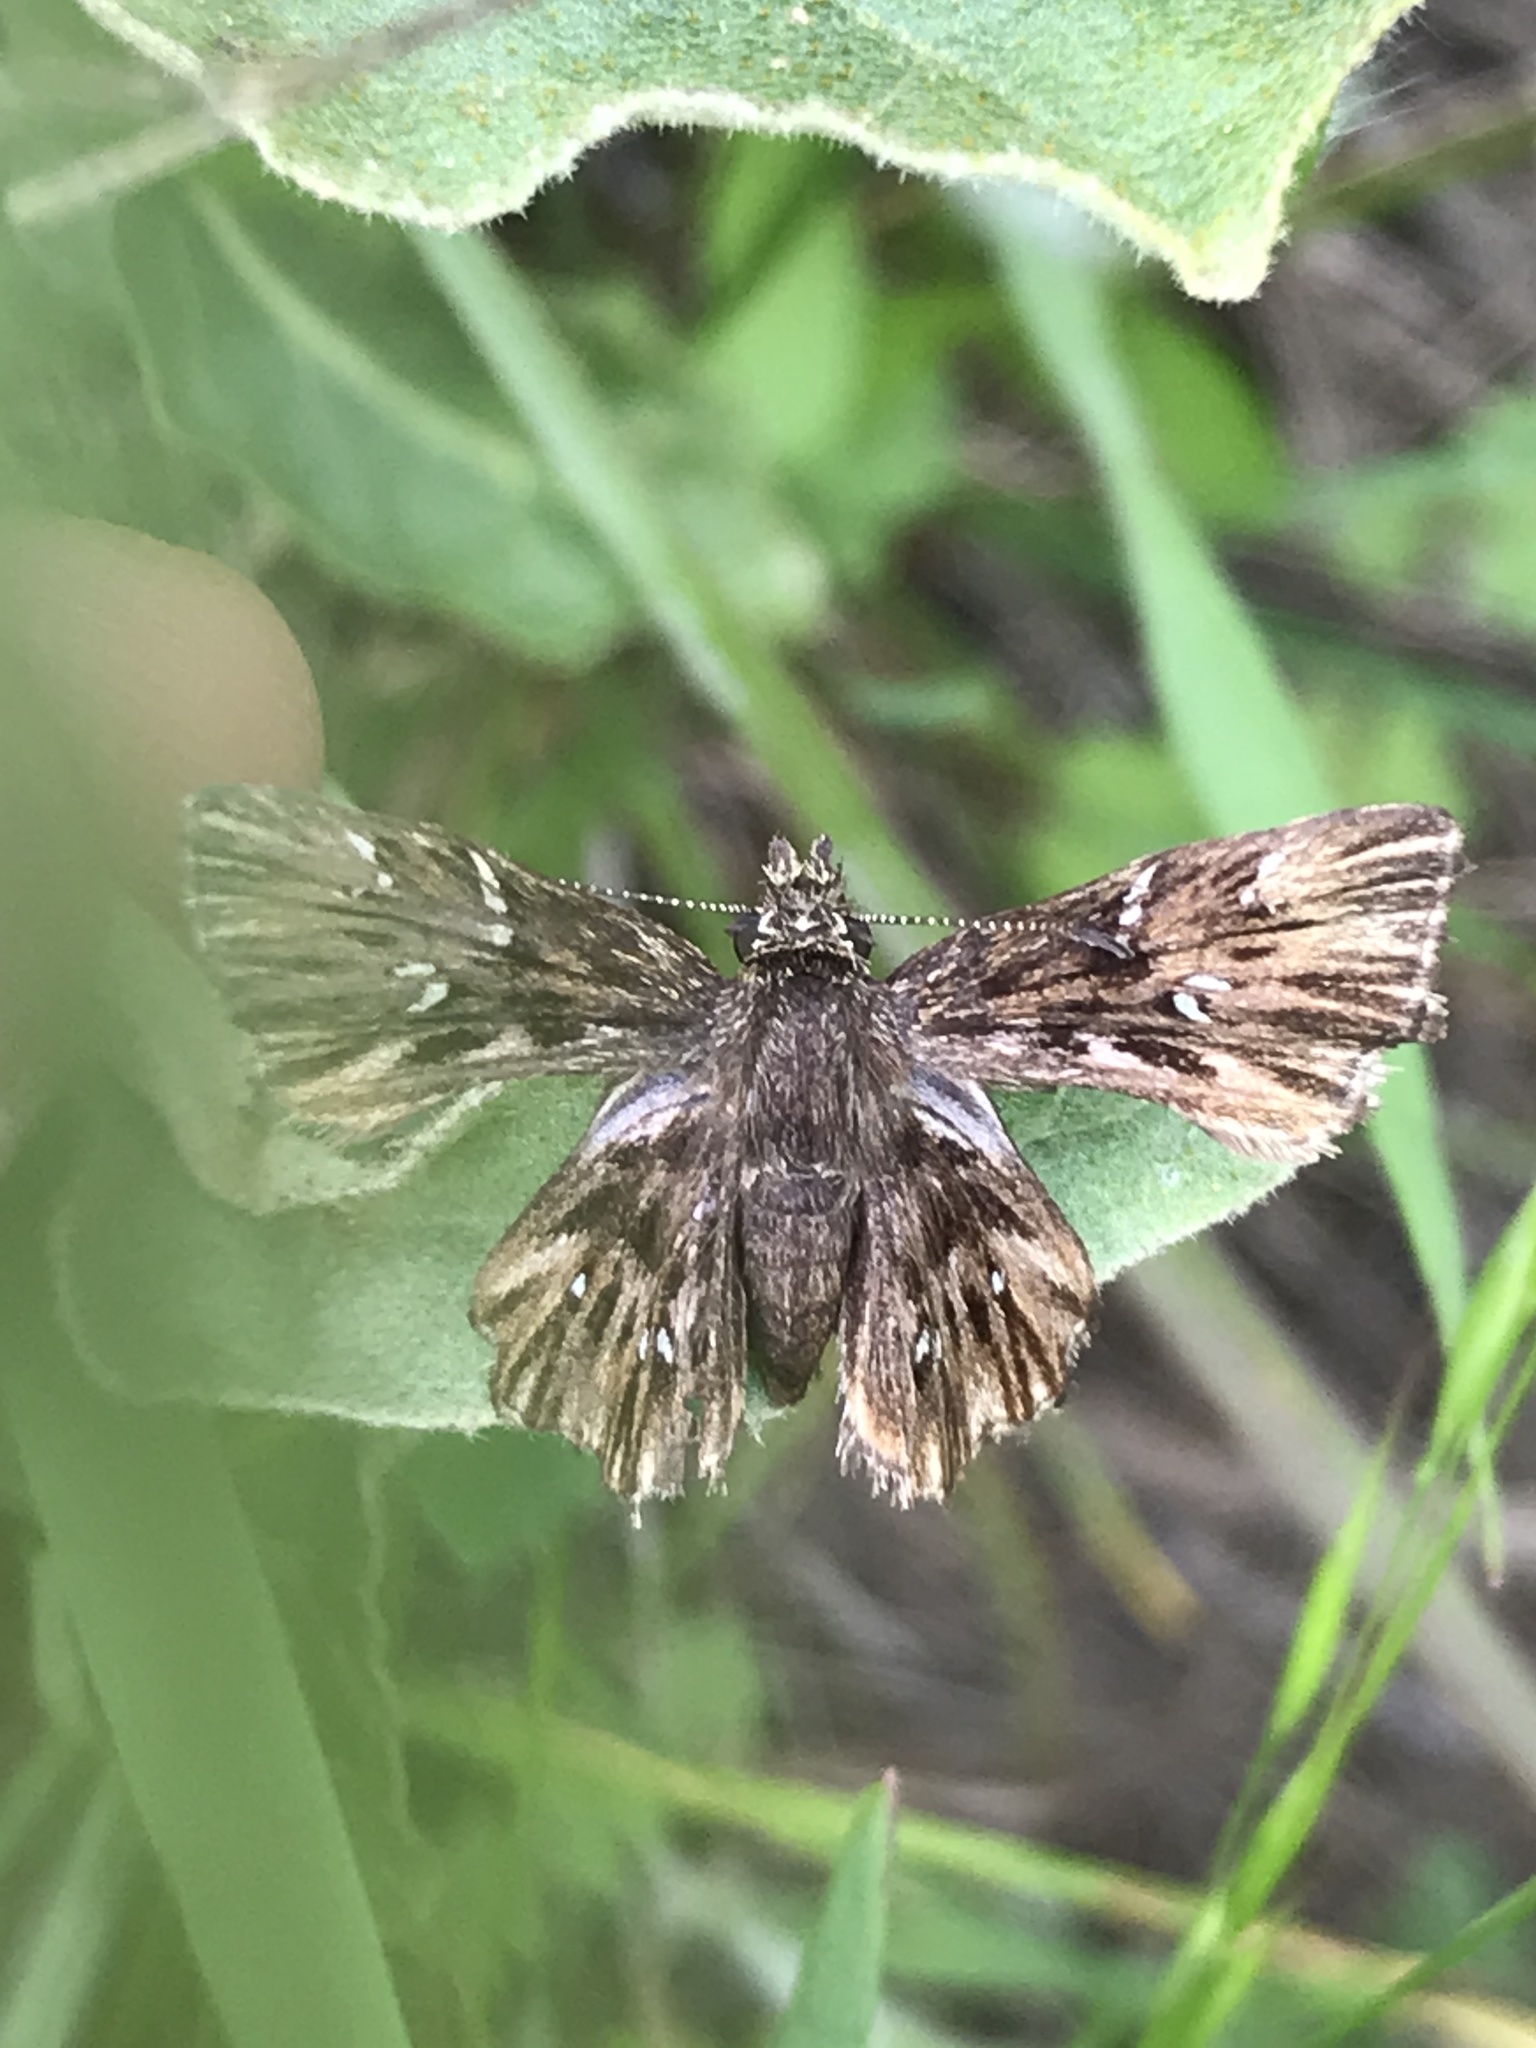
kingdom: Animalia
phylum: Arthropoda
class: Insecta
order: Lepidoptera
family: Hesperiidae
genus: Celotes
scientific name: Celotes nessus
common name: Common streaky-skipper
